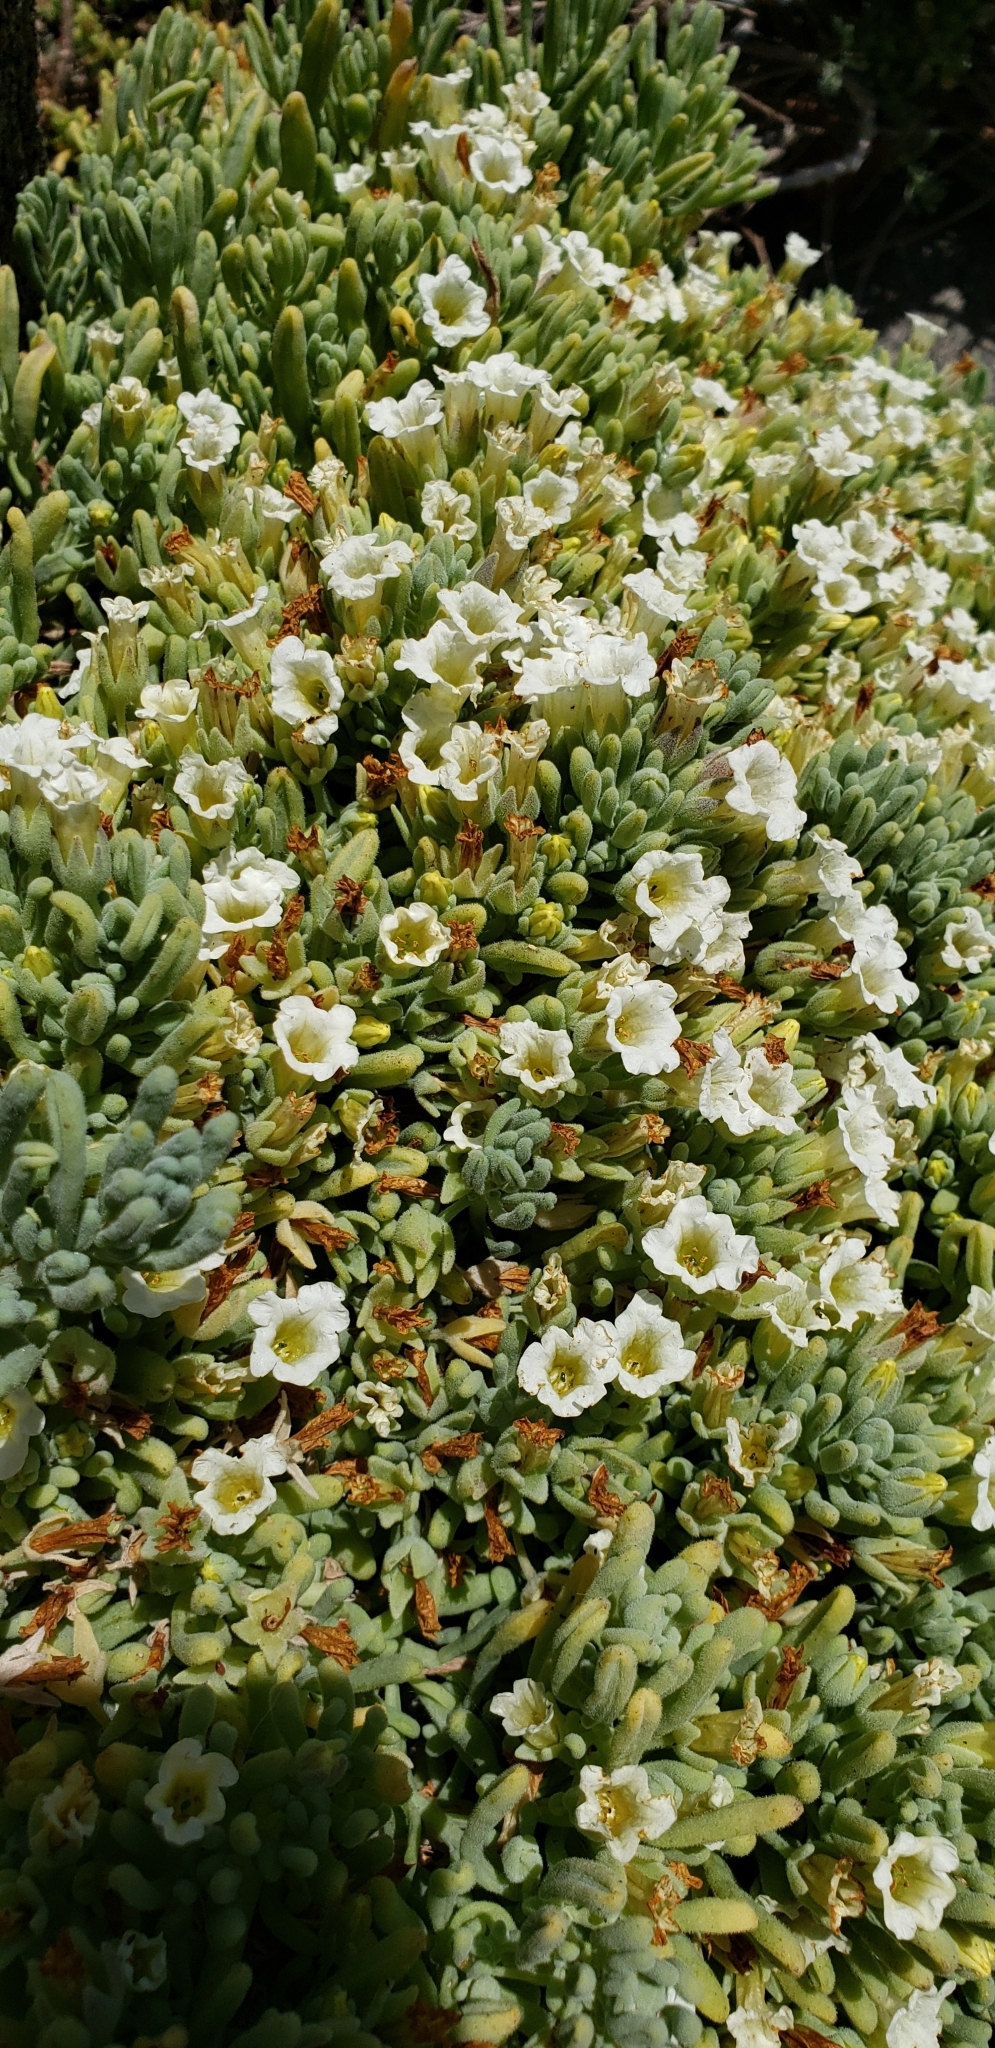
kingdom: Plantae
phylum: Tracheophyta
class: Magnoliopsida
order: Solanales
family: Solanaceae
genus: Nolana
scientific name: Nolana crassulifolia
